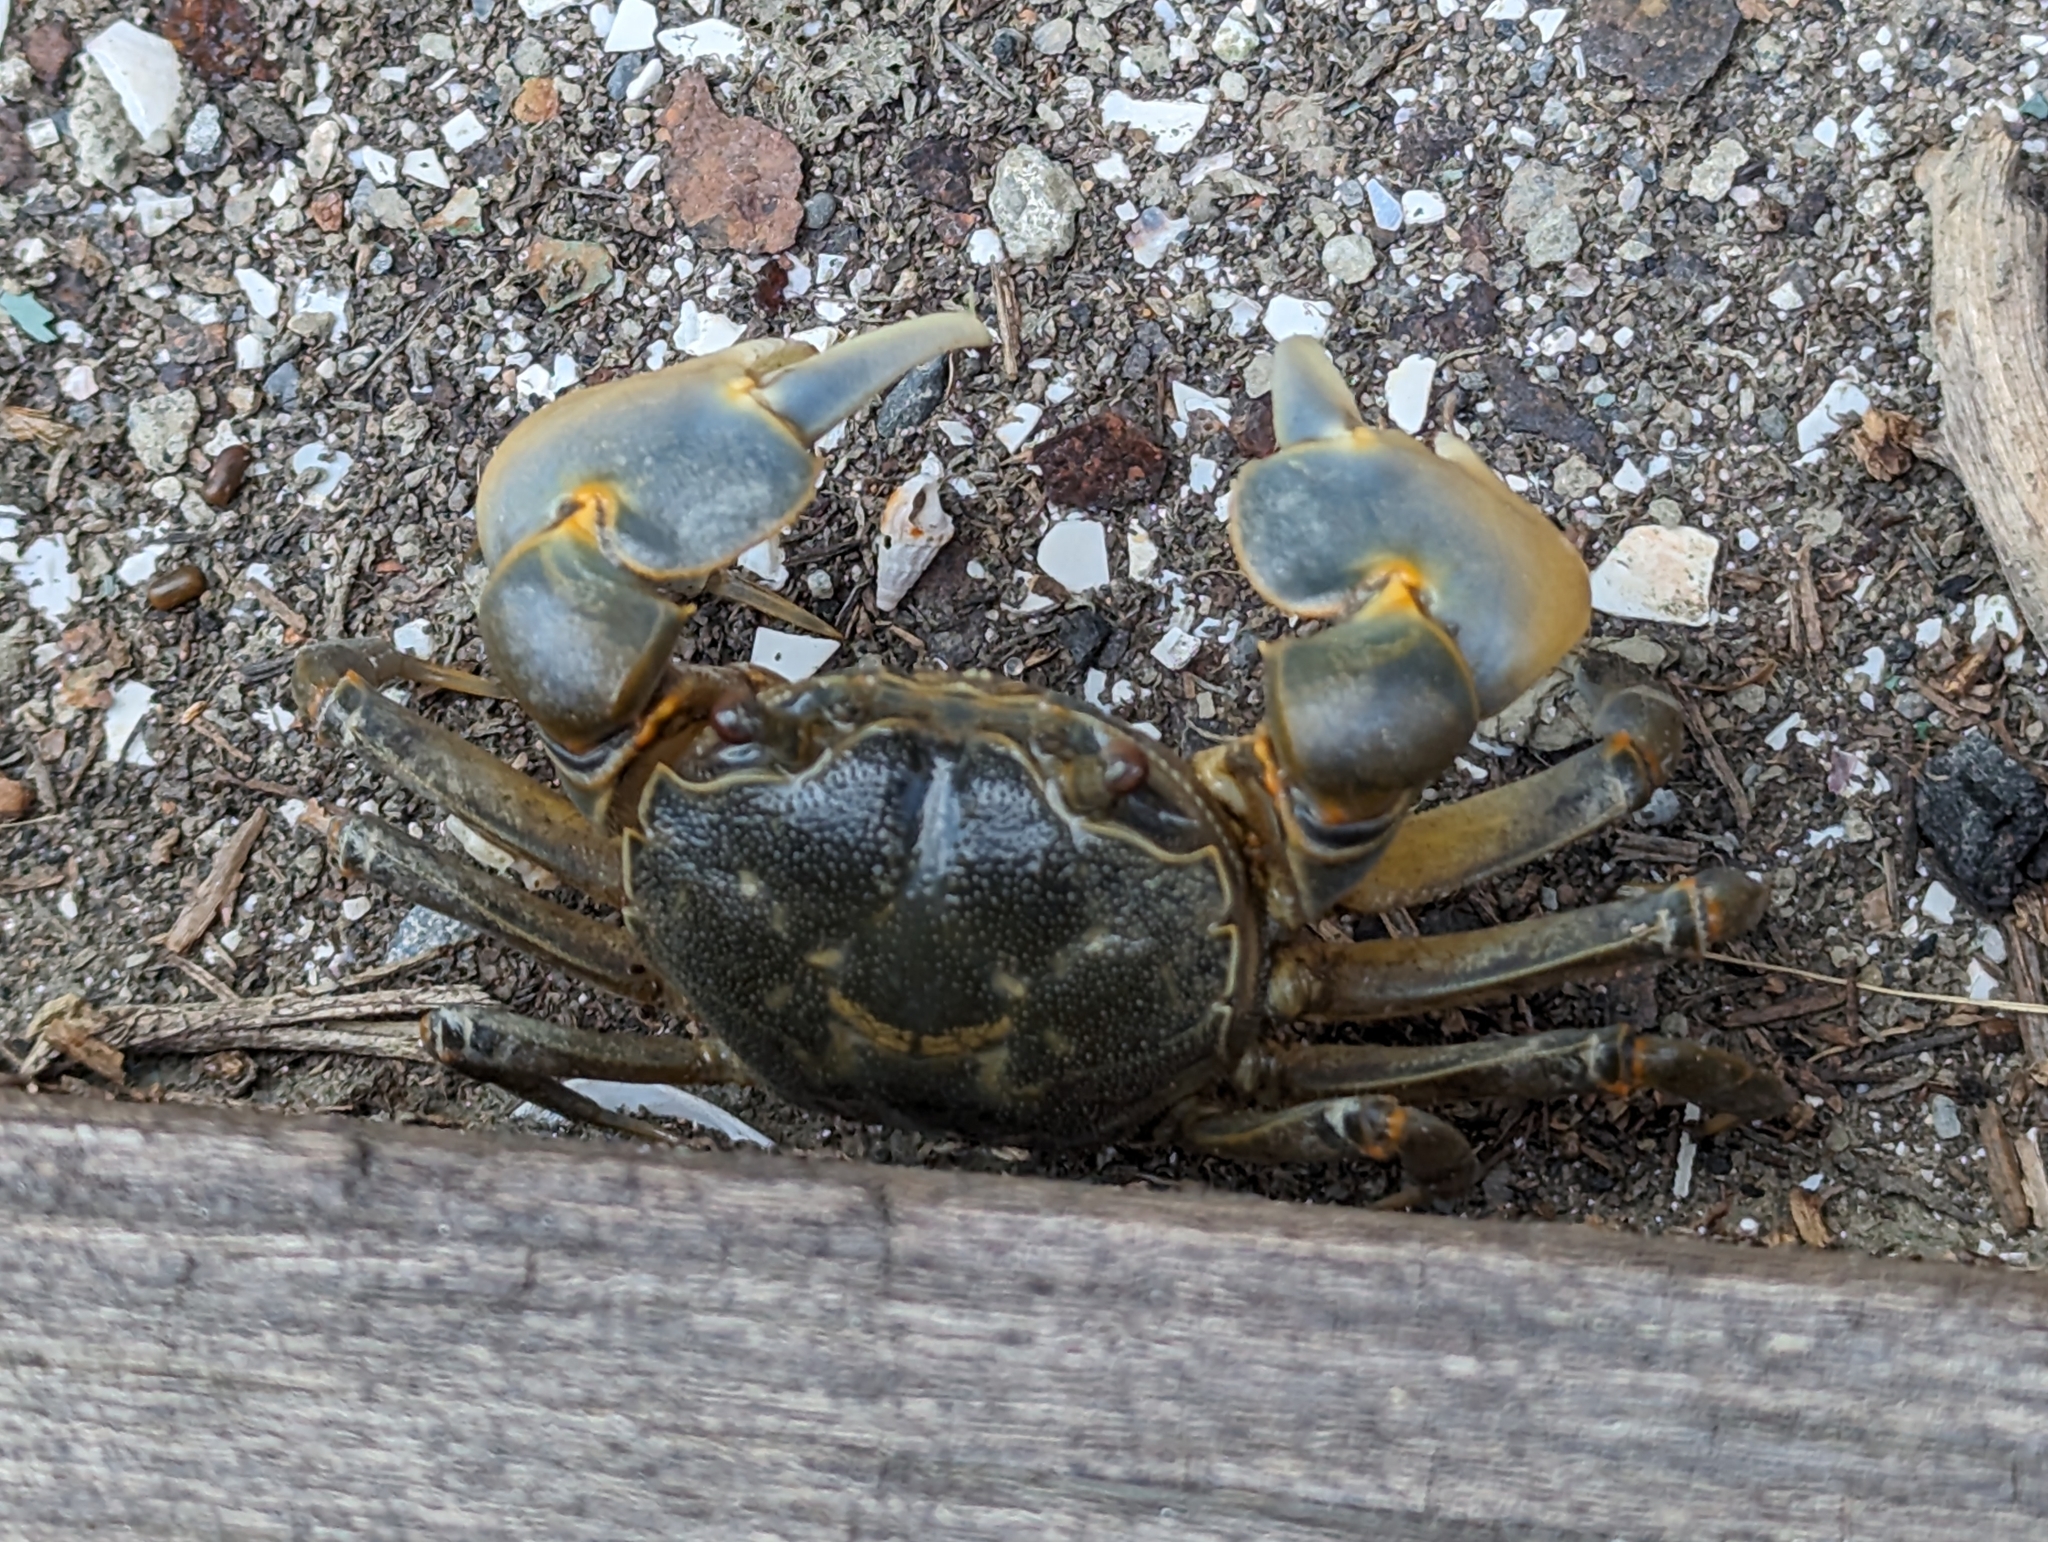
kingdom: Animalia
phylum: Arthropoda
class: Malacostraca
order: Decapoda
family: Varunidae
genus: Helice
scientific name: Helice formosensis
